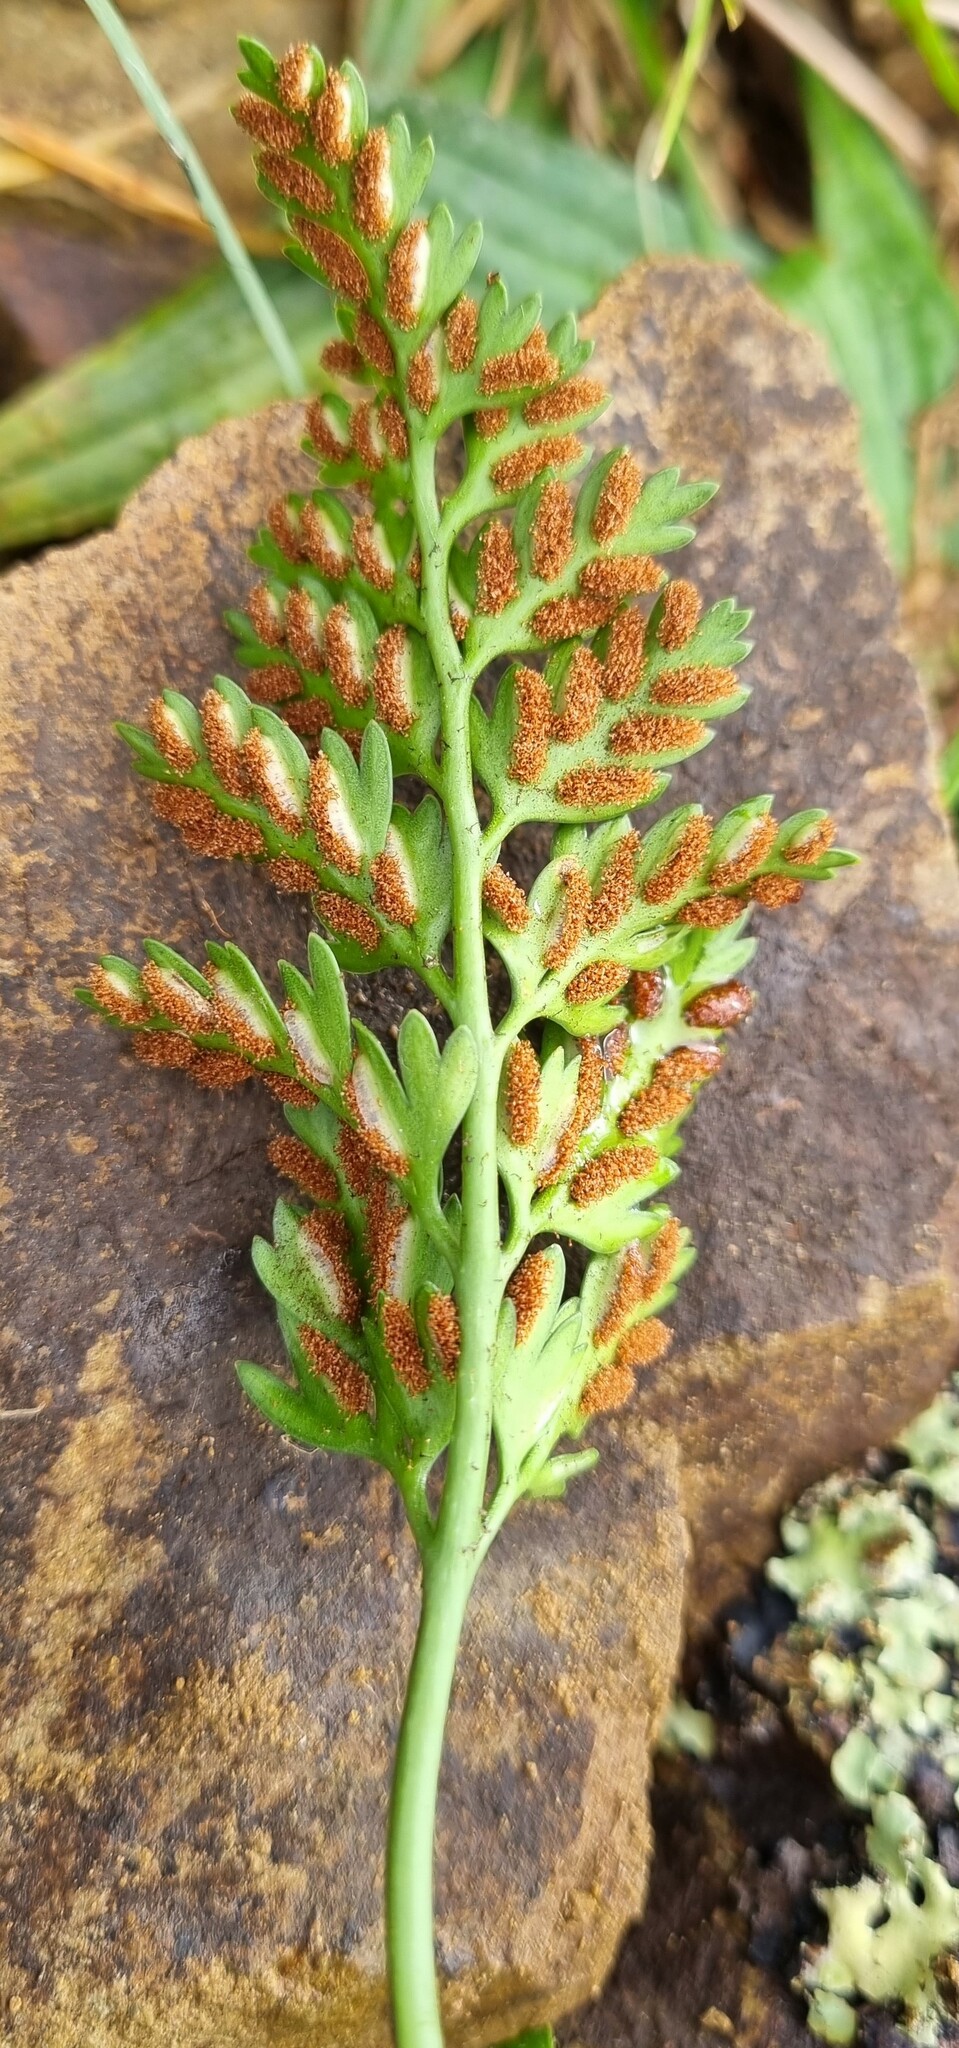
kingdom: Plantae
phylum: Tracheophyta
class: Polypodiopsida
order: Polypodiales
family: Aspleniaceae
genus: Asplenium
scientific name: Asplenium appendiculatum
